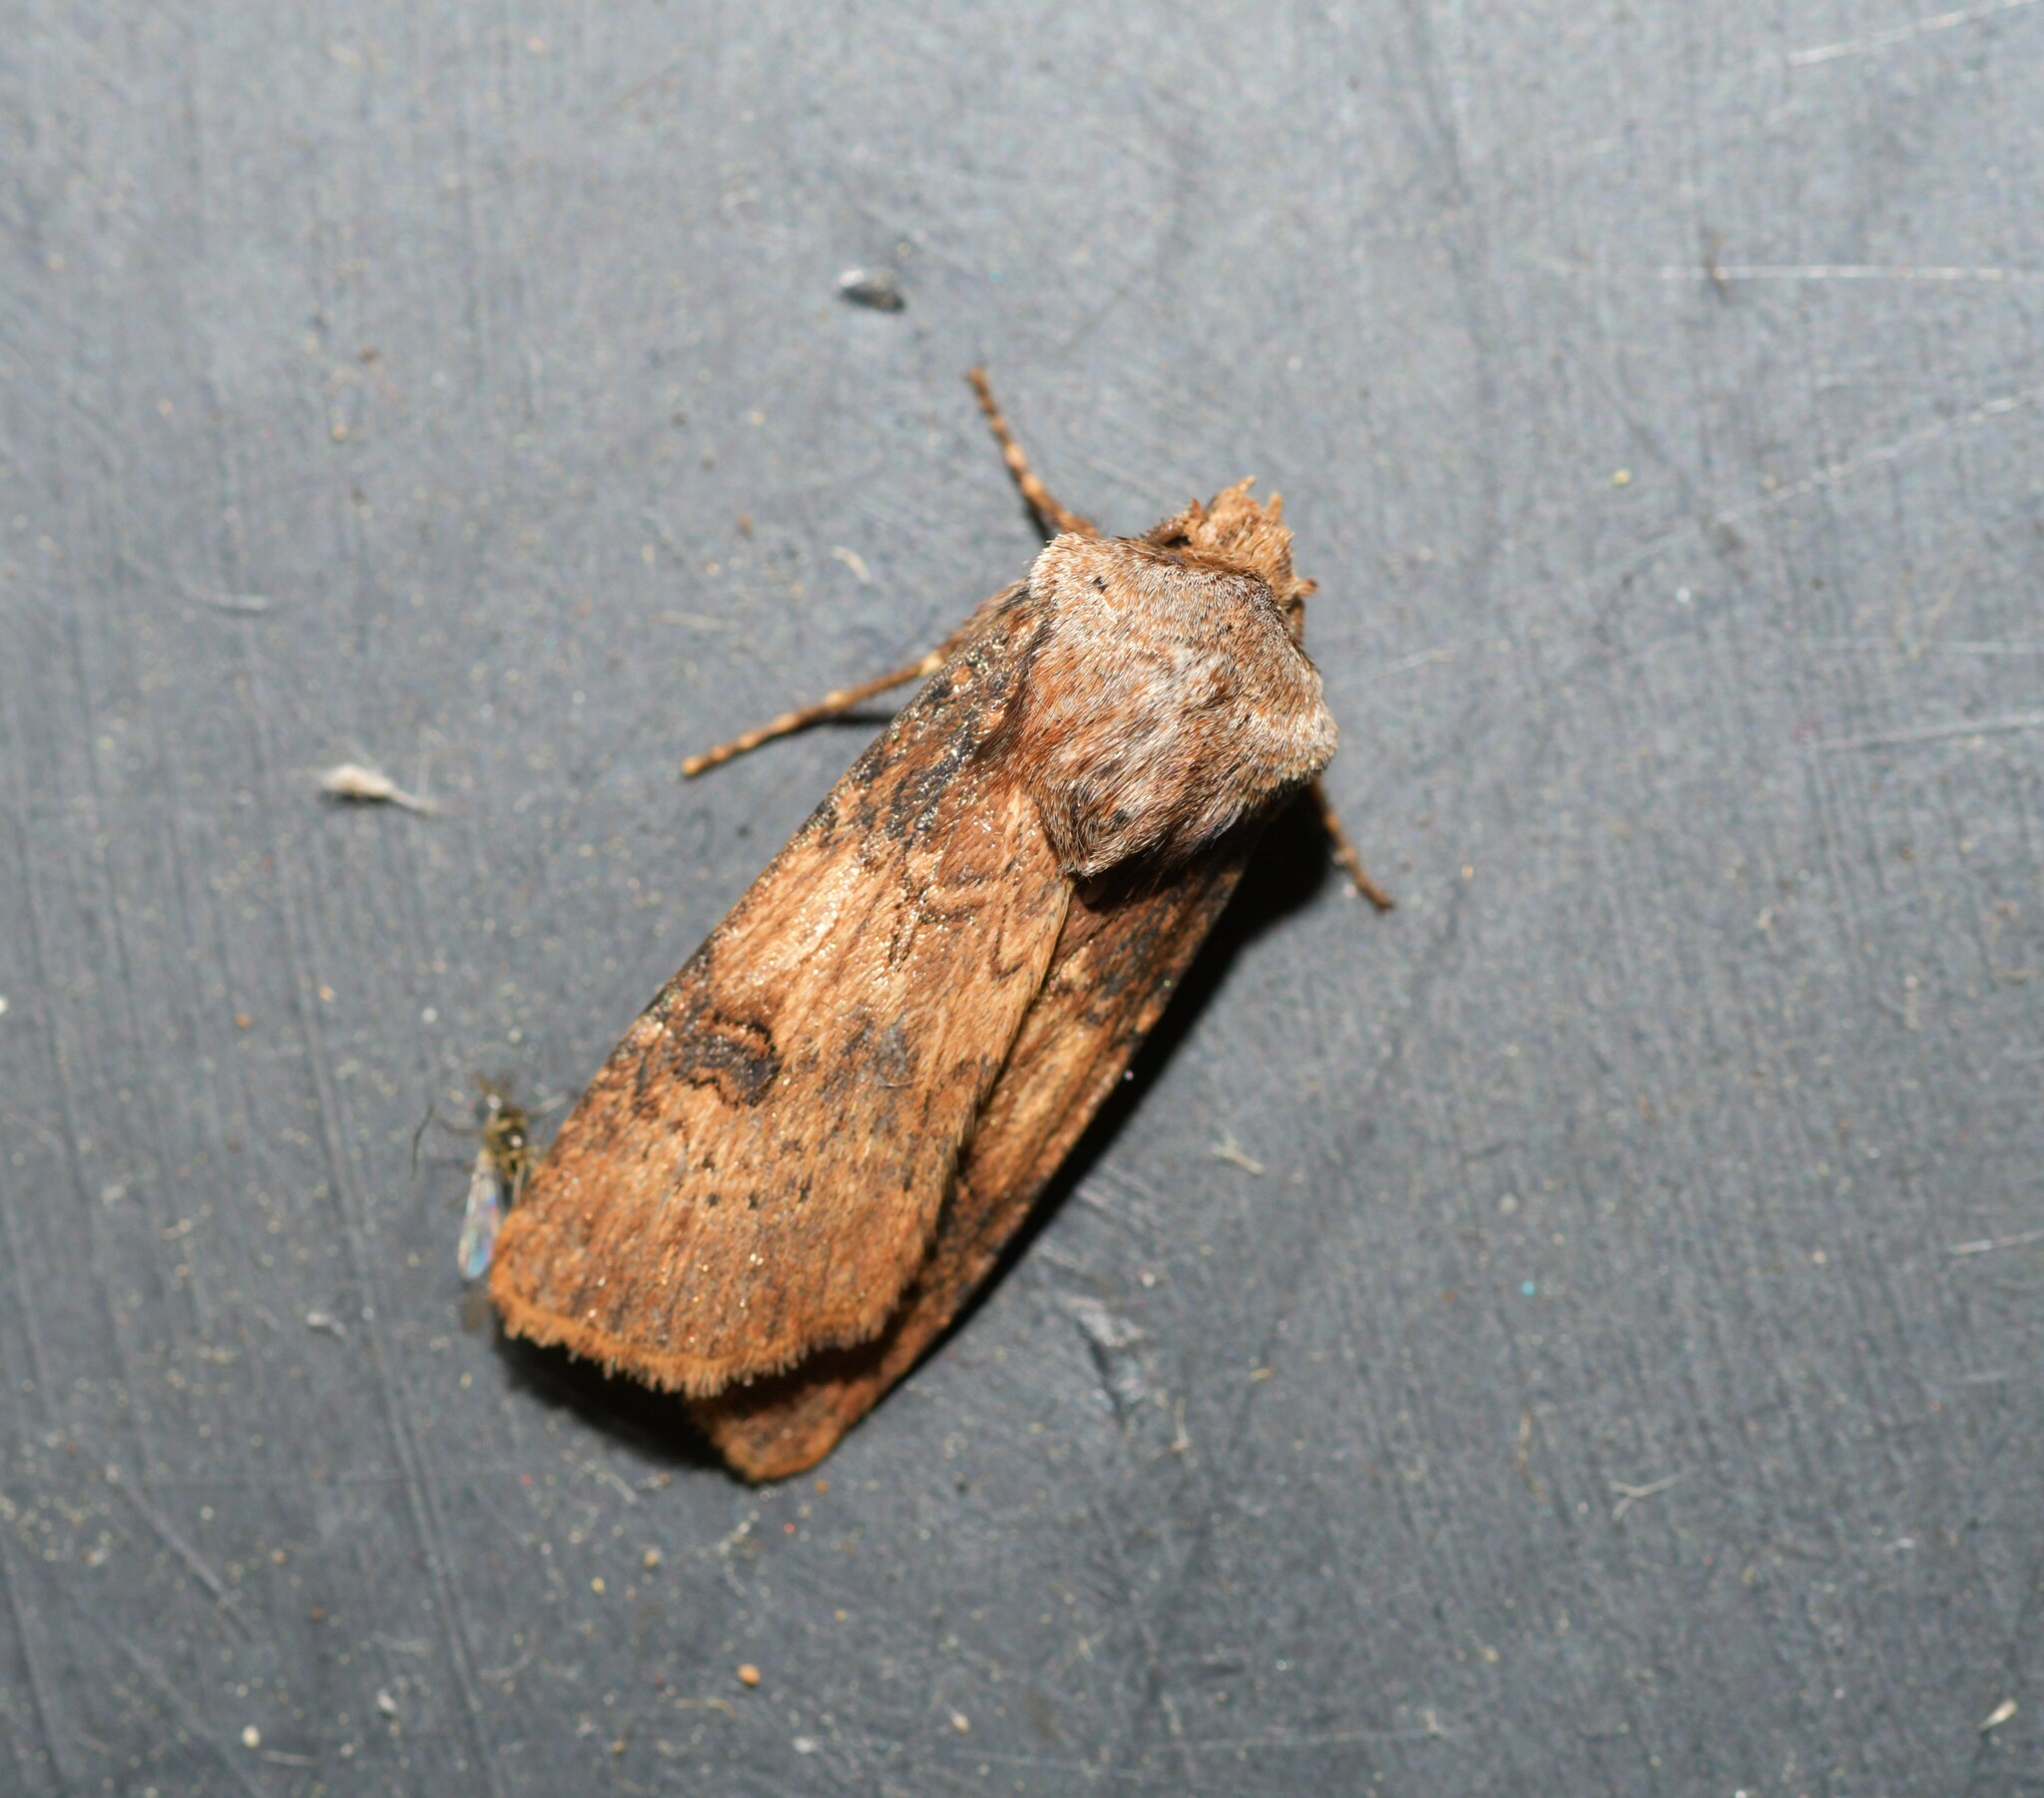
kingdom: Animalia
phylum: Arthropoda
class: Insecta
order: Lepidoptera
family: Noctuidae
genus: Agrotis
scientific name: Agrotis puta
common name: Shuttle-shaped dart
